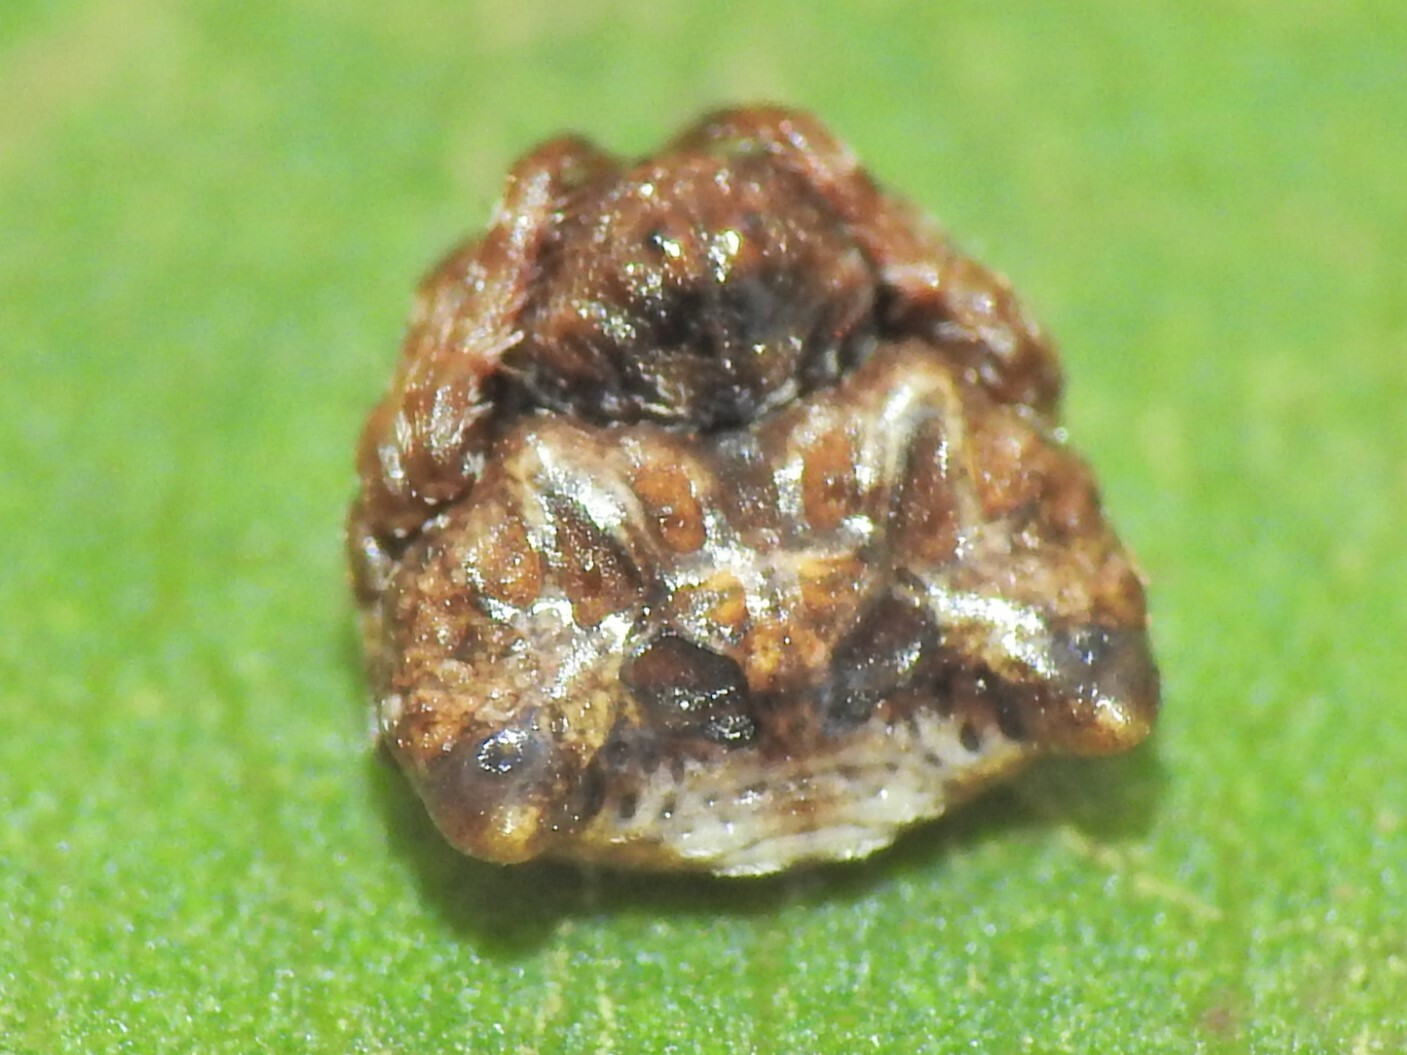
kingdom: Animalia
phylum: Arthropoda
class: Arachnida
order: Araneae
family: Arkyidae
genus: Arkys
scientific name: Arkys curtulus
